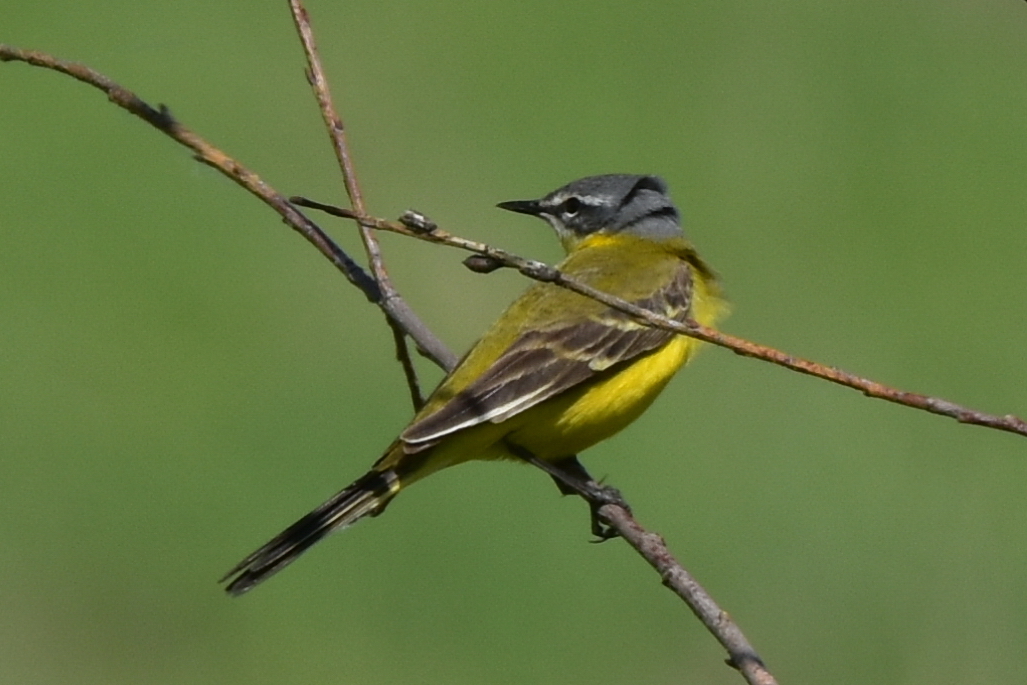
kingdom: Animalia
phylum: Chordata
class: Aves
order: Passeriformes
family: Motacillidae
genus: Motacilla
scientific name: Motacilla flava
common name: Western yellow wagtail
